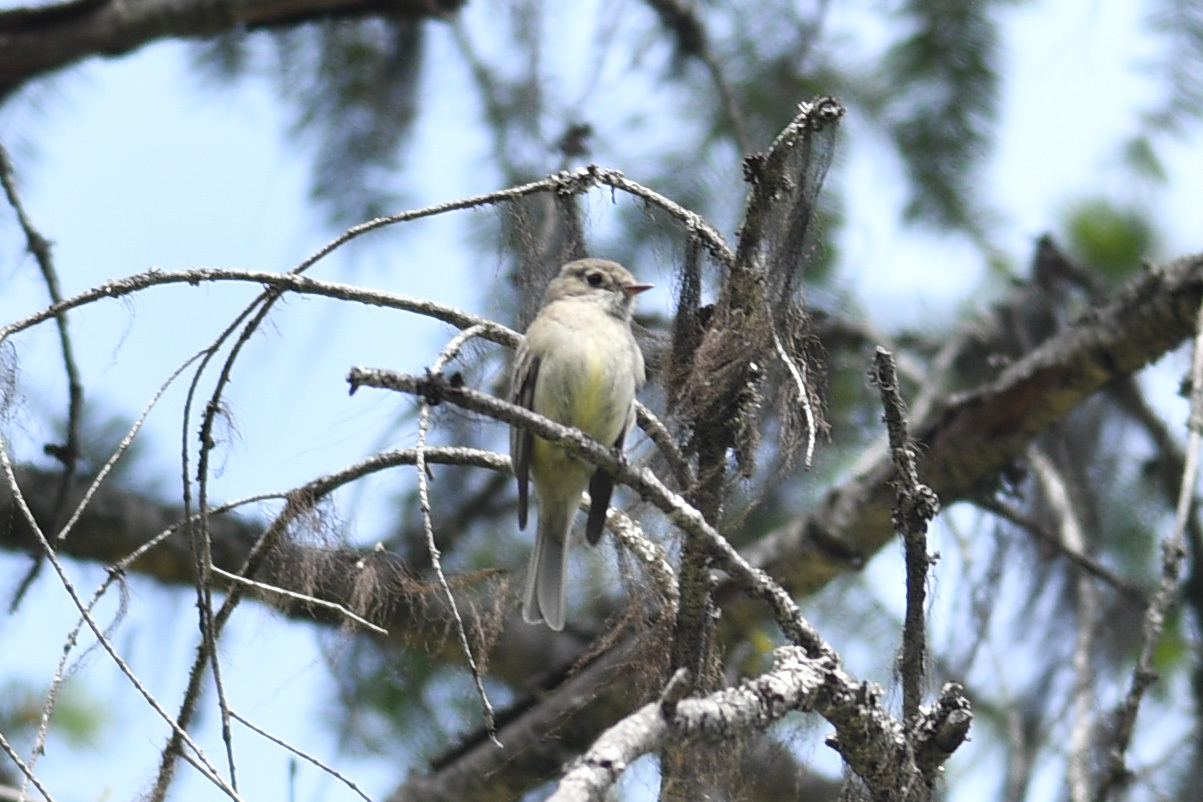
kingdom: Animalia
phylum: Chordata
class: Aves
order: Passeriformes
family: Tyrannidae
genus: Empidonax
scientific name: Empidonax hammondii
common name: Hammond's flycatcher
